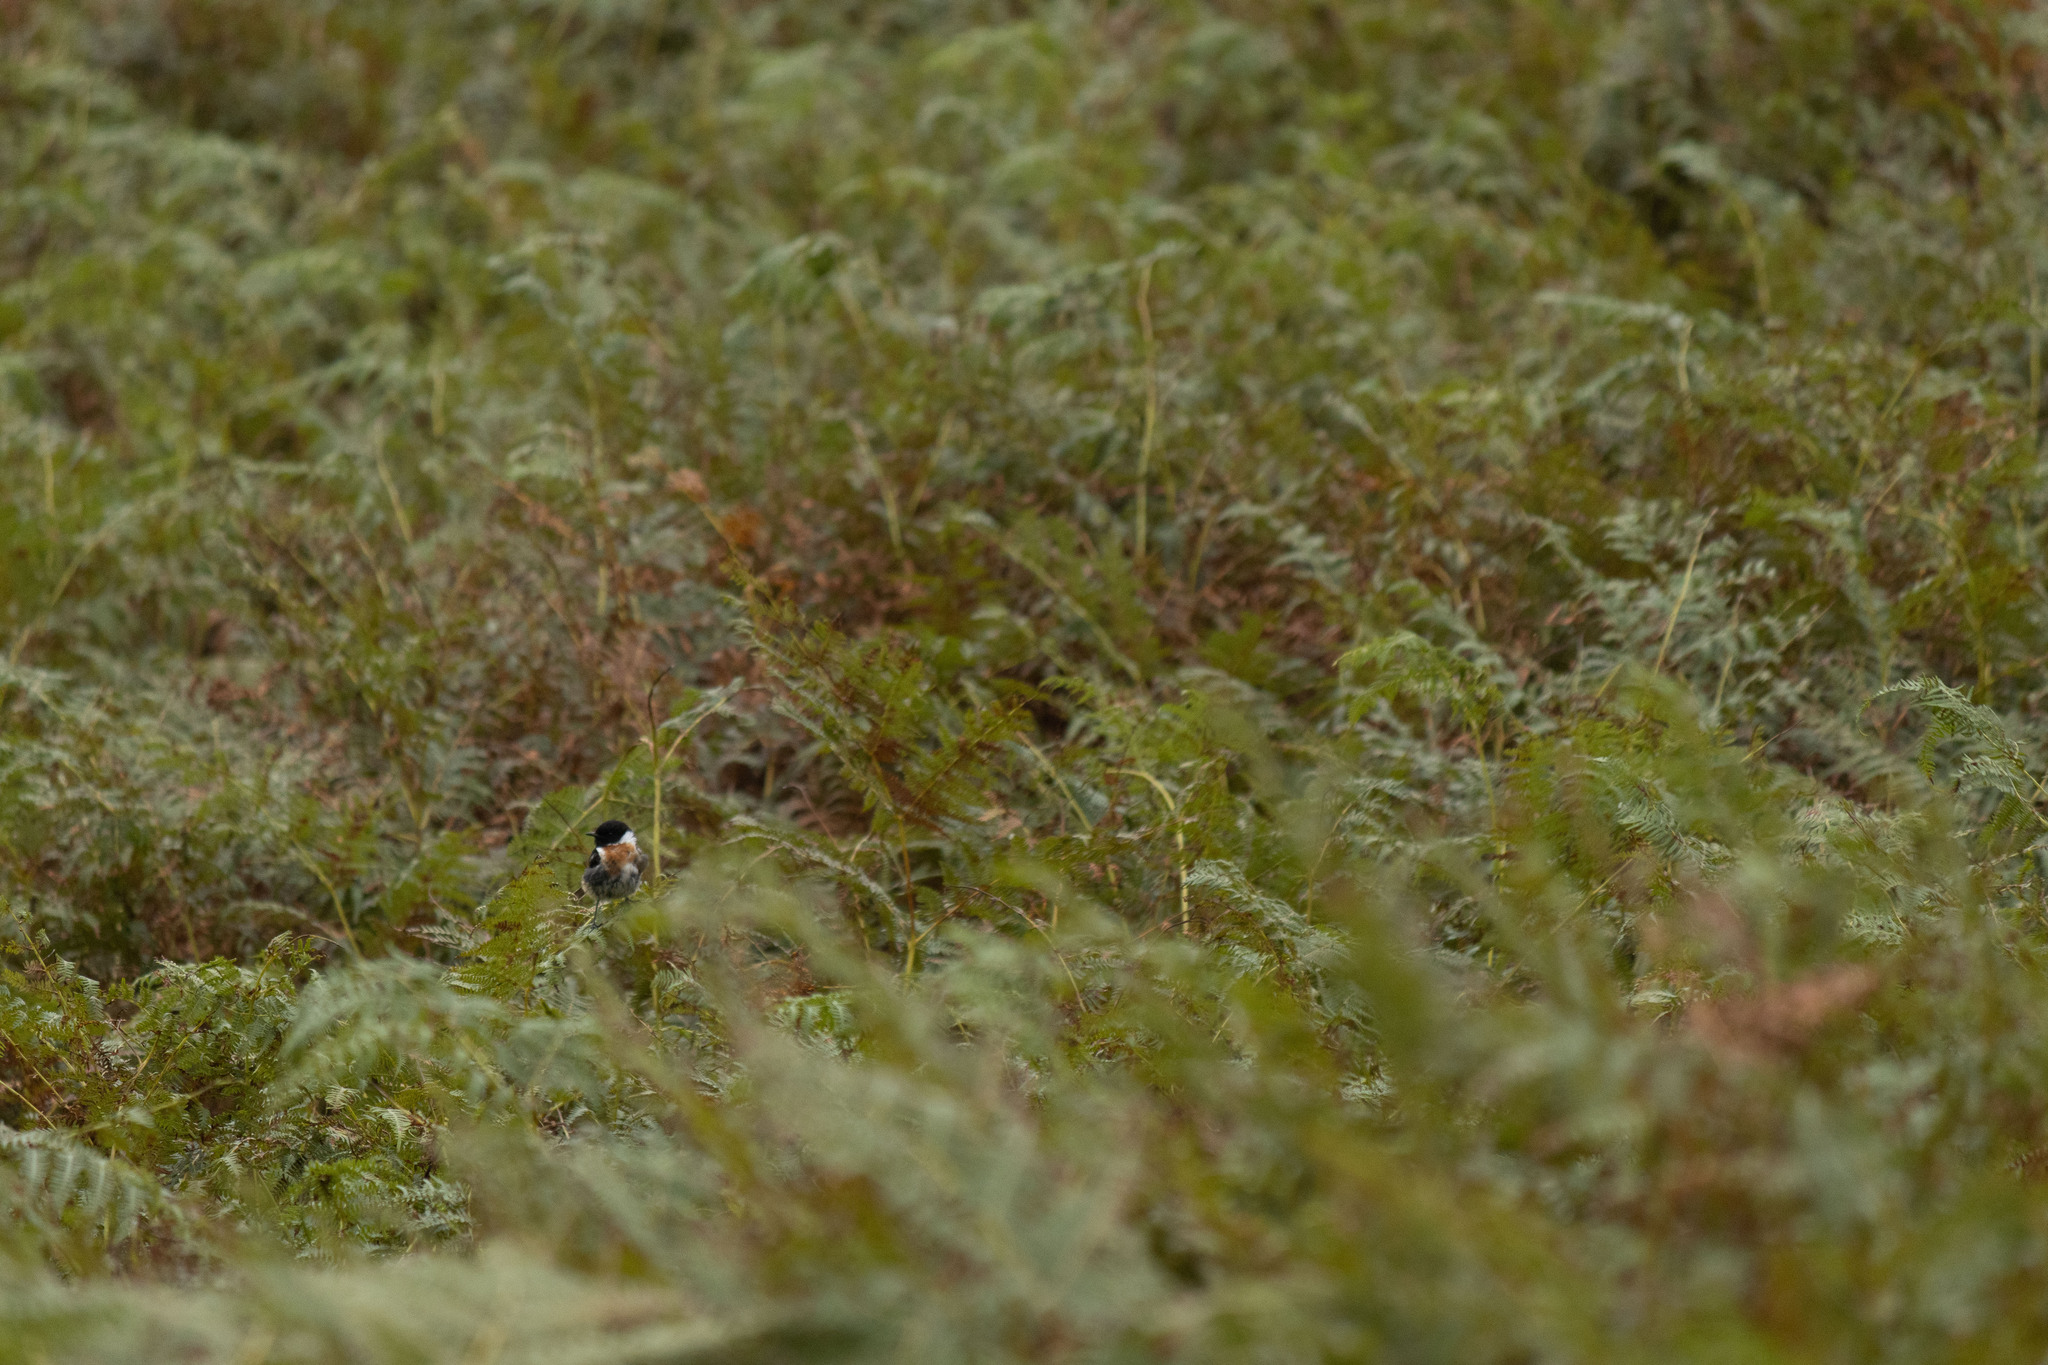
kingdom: Animalia
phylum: Chordata
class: Aves
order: Passeriformes
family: Muscicapidae
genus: Saxicola
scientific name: Saxicola rubicola
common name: European stonechat
